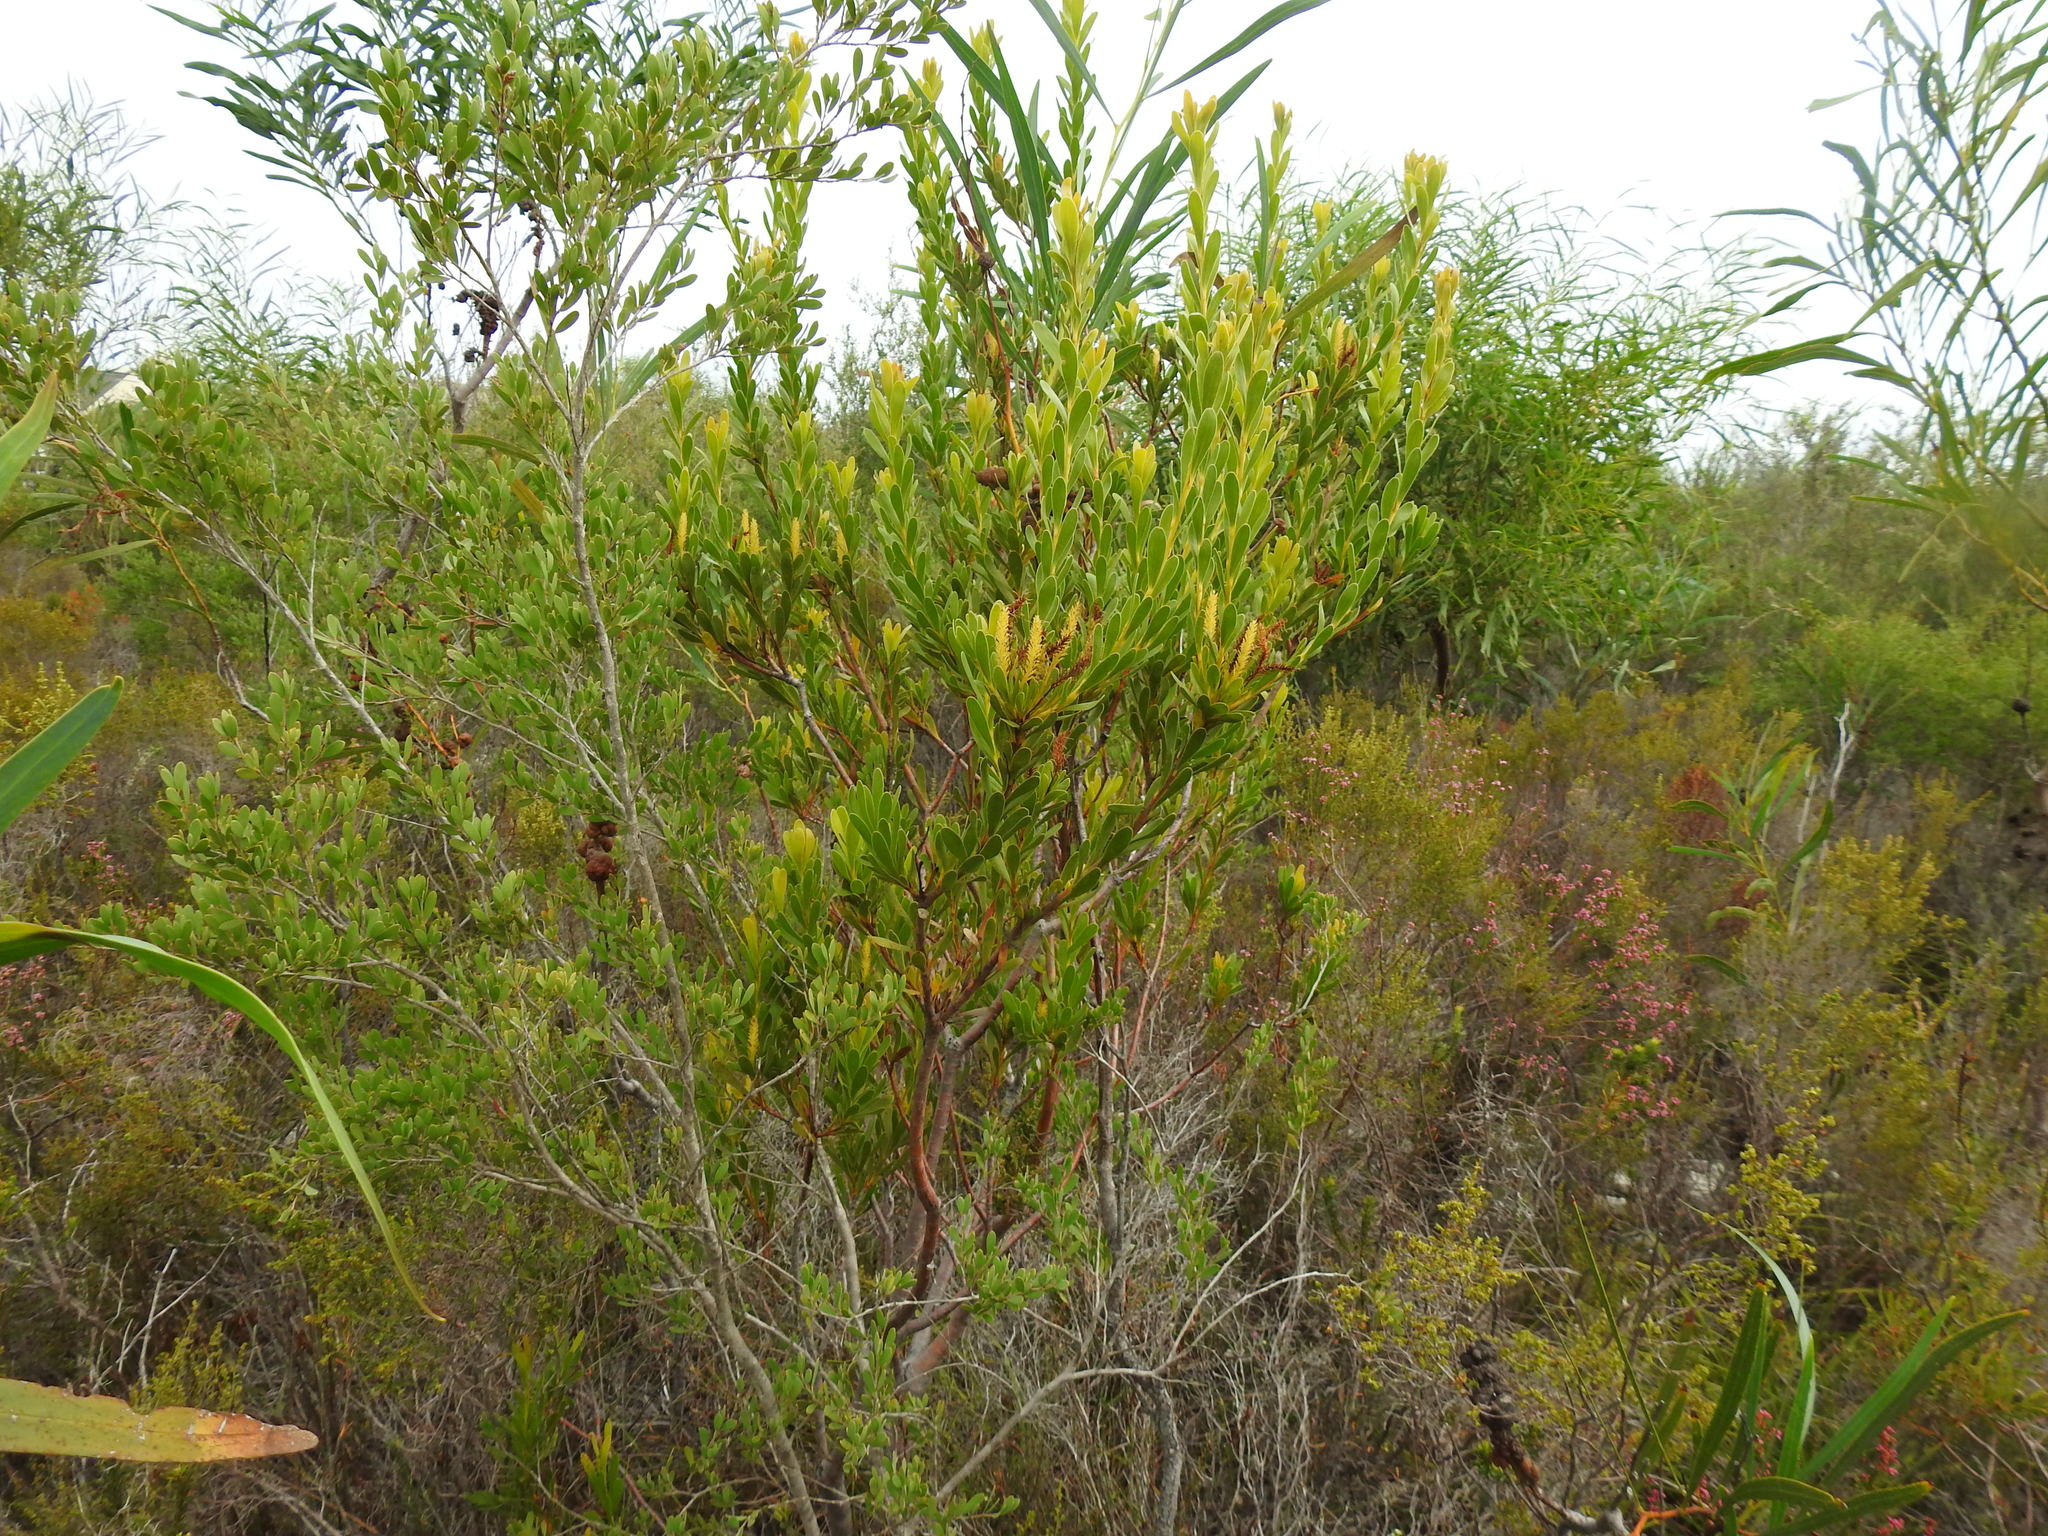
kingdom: Plantae
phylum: Tracheophyta
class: Magnoliopsida
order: Proteales
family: Proteaceae
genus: Aulax
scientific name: Aulax umbellata
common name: Broad-leaf featherbush
